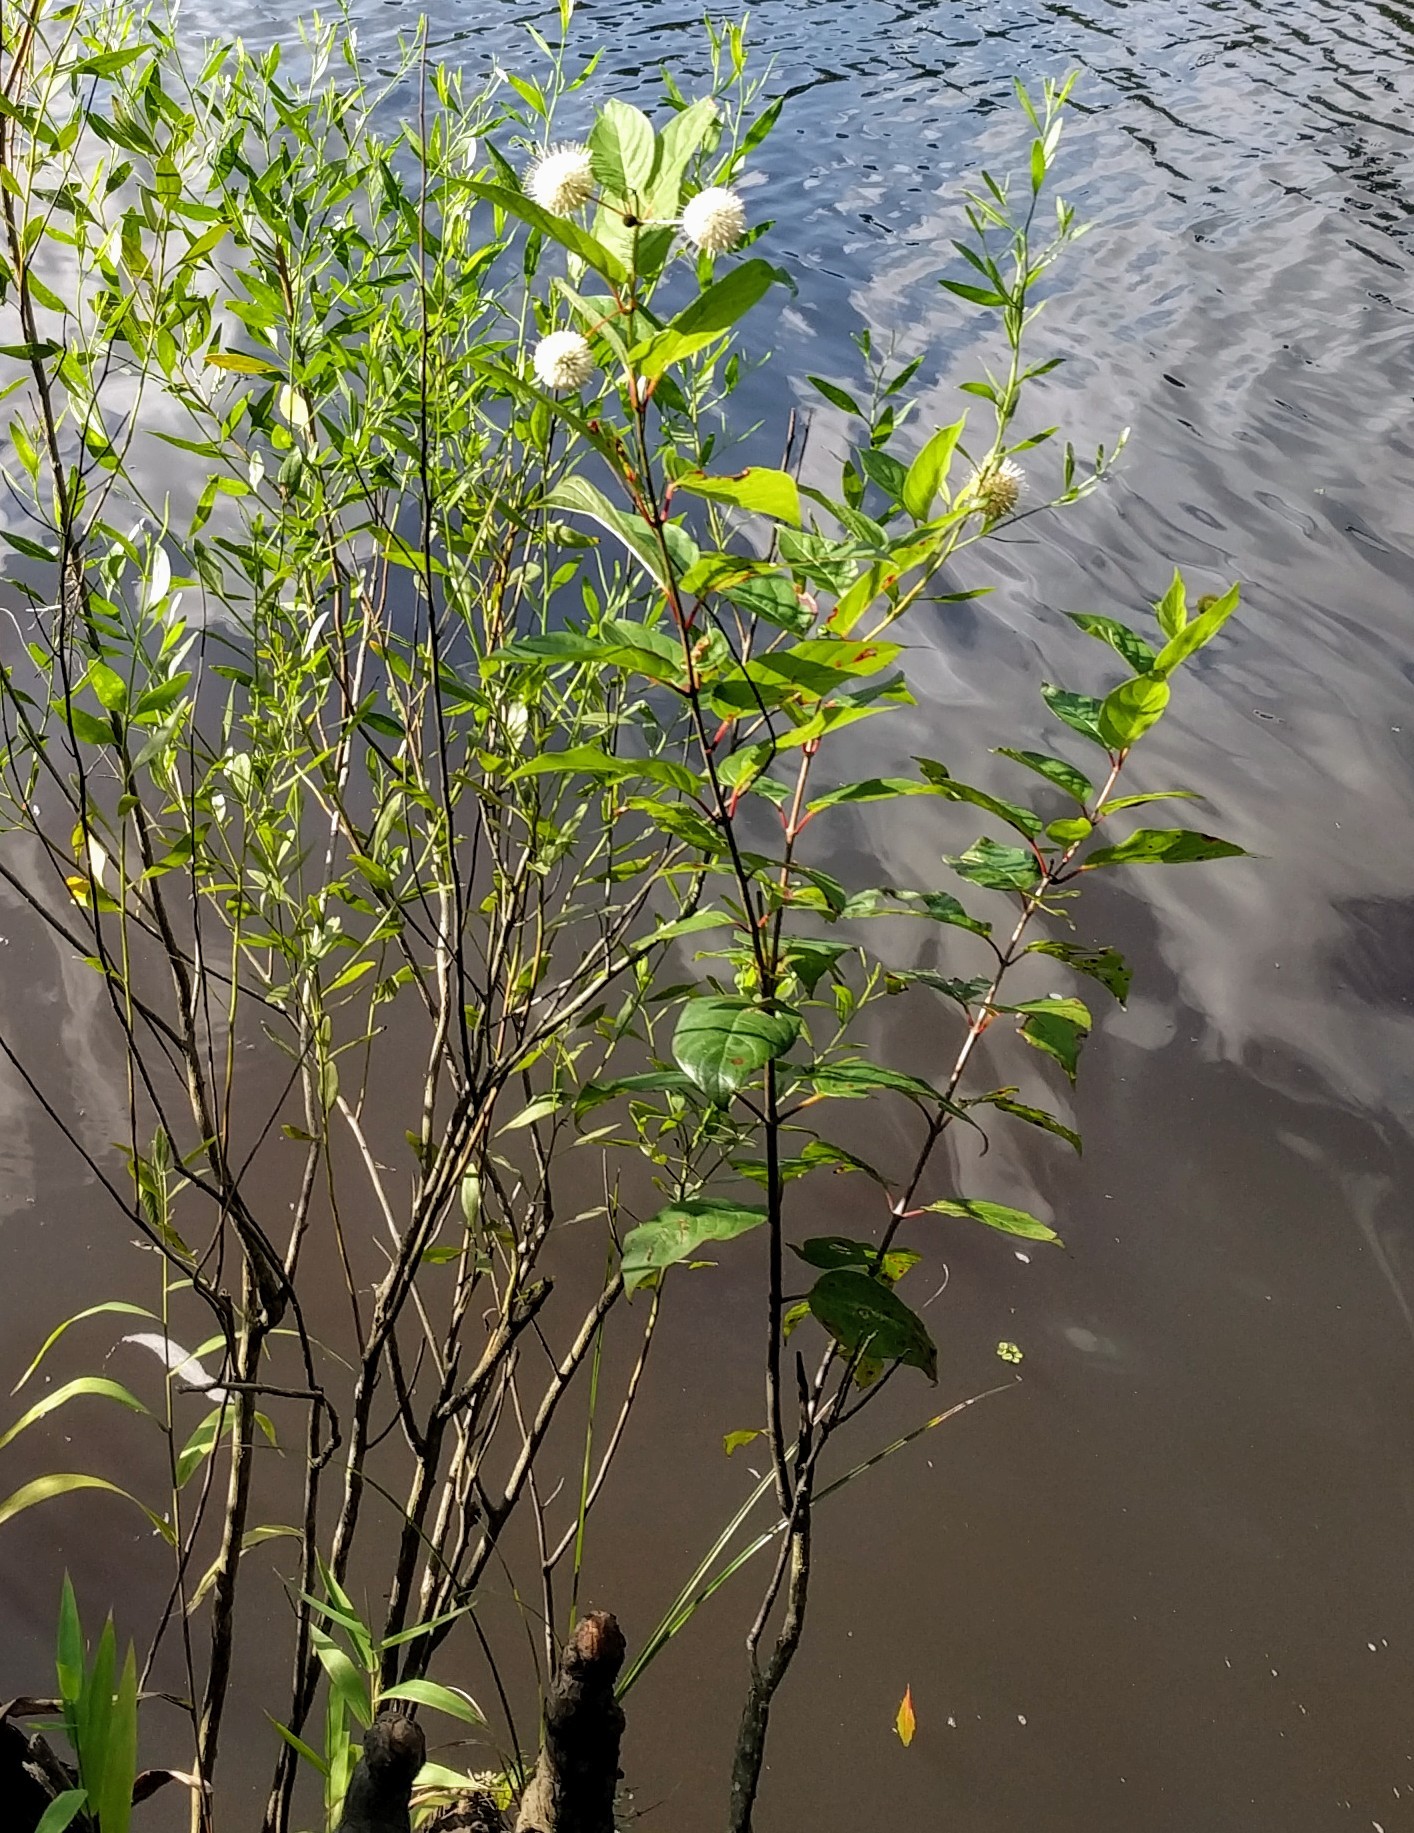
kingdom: Plantae
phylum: Tracheophyta
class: Magnoliopsida
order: Gentianales
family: Rubiaceae
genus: Cephalanthus
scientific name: Cephalanthus occidentalis
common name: Button-willow
